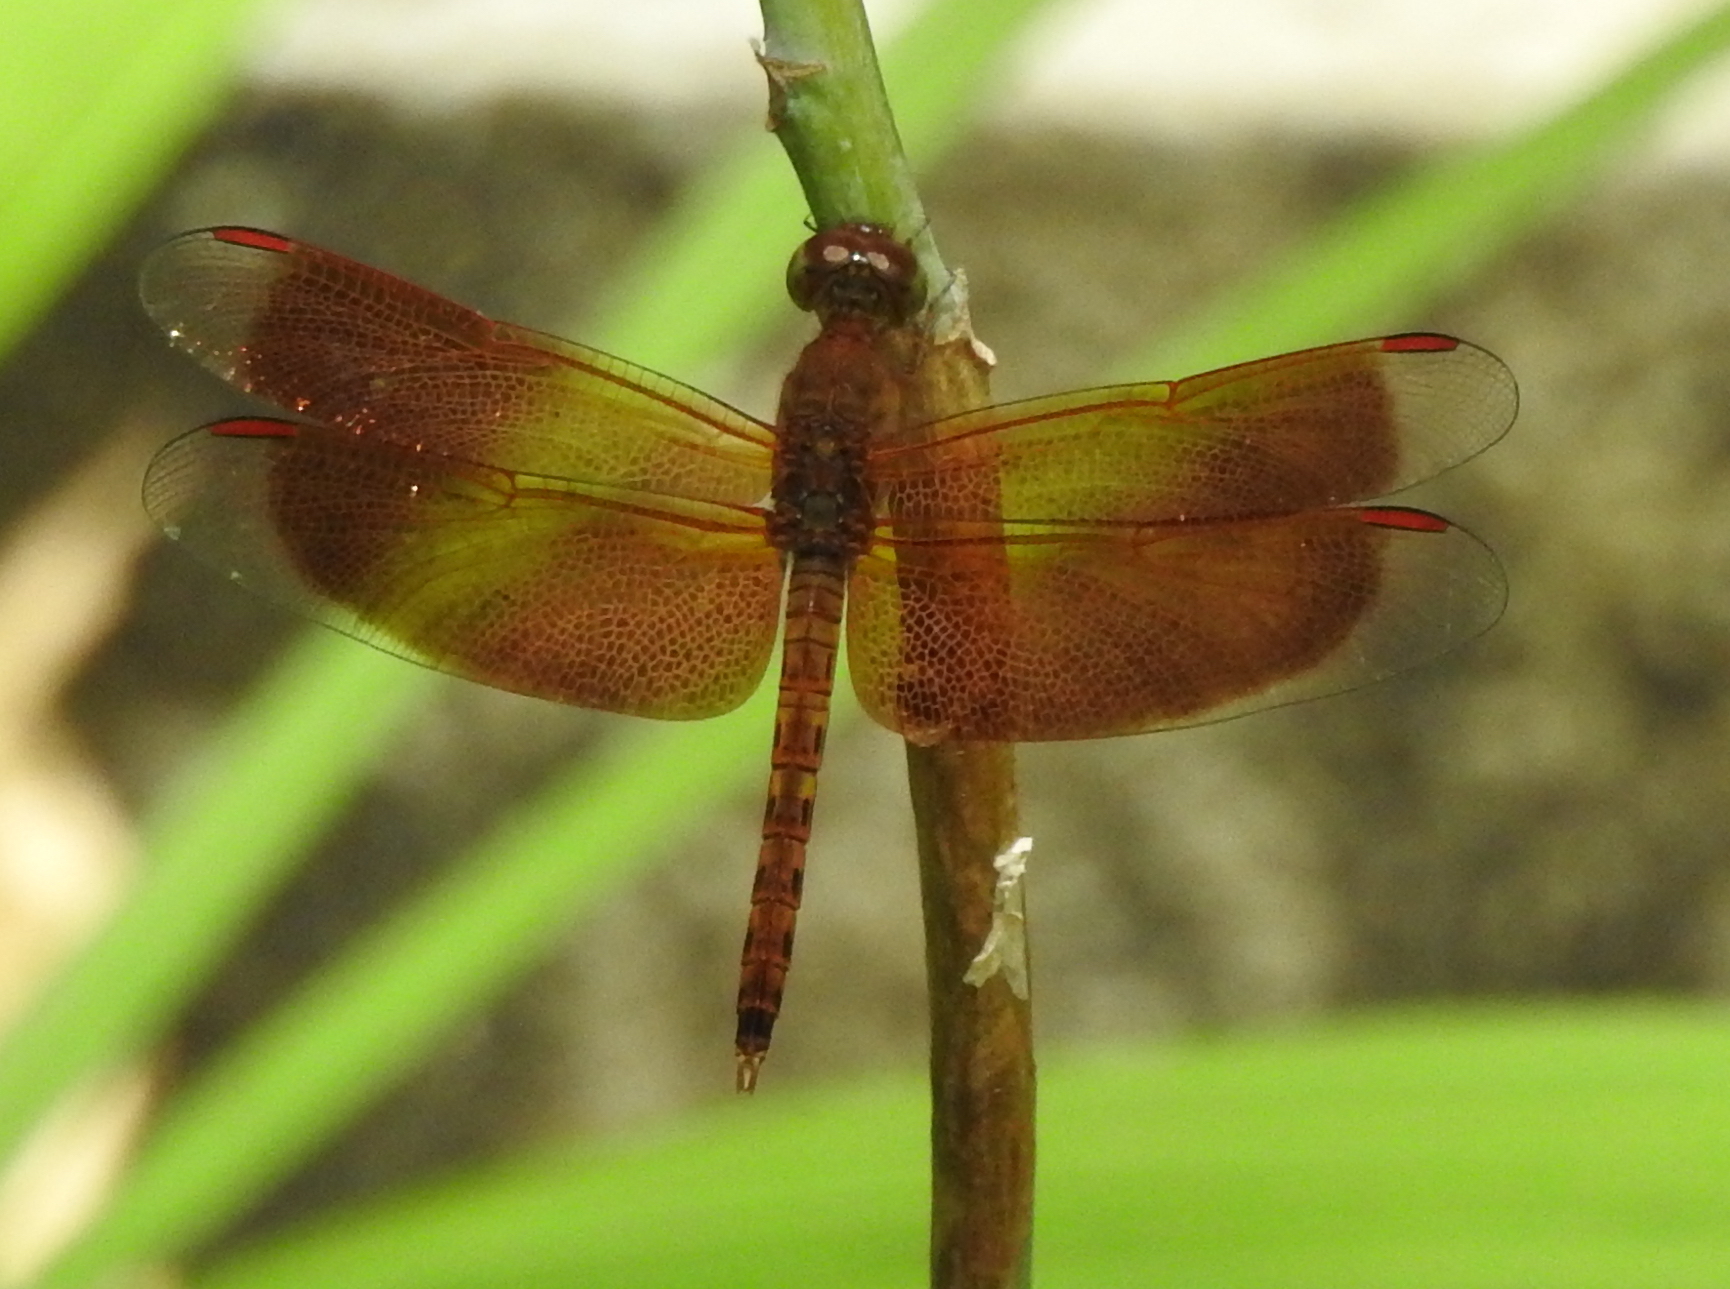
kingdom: Animalia
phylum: Arthropoda
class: Insecta
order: Odonata
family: Libellulidae
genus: Neurothemis
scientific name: Neurothemis fluctuans
